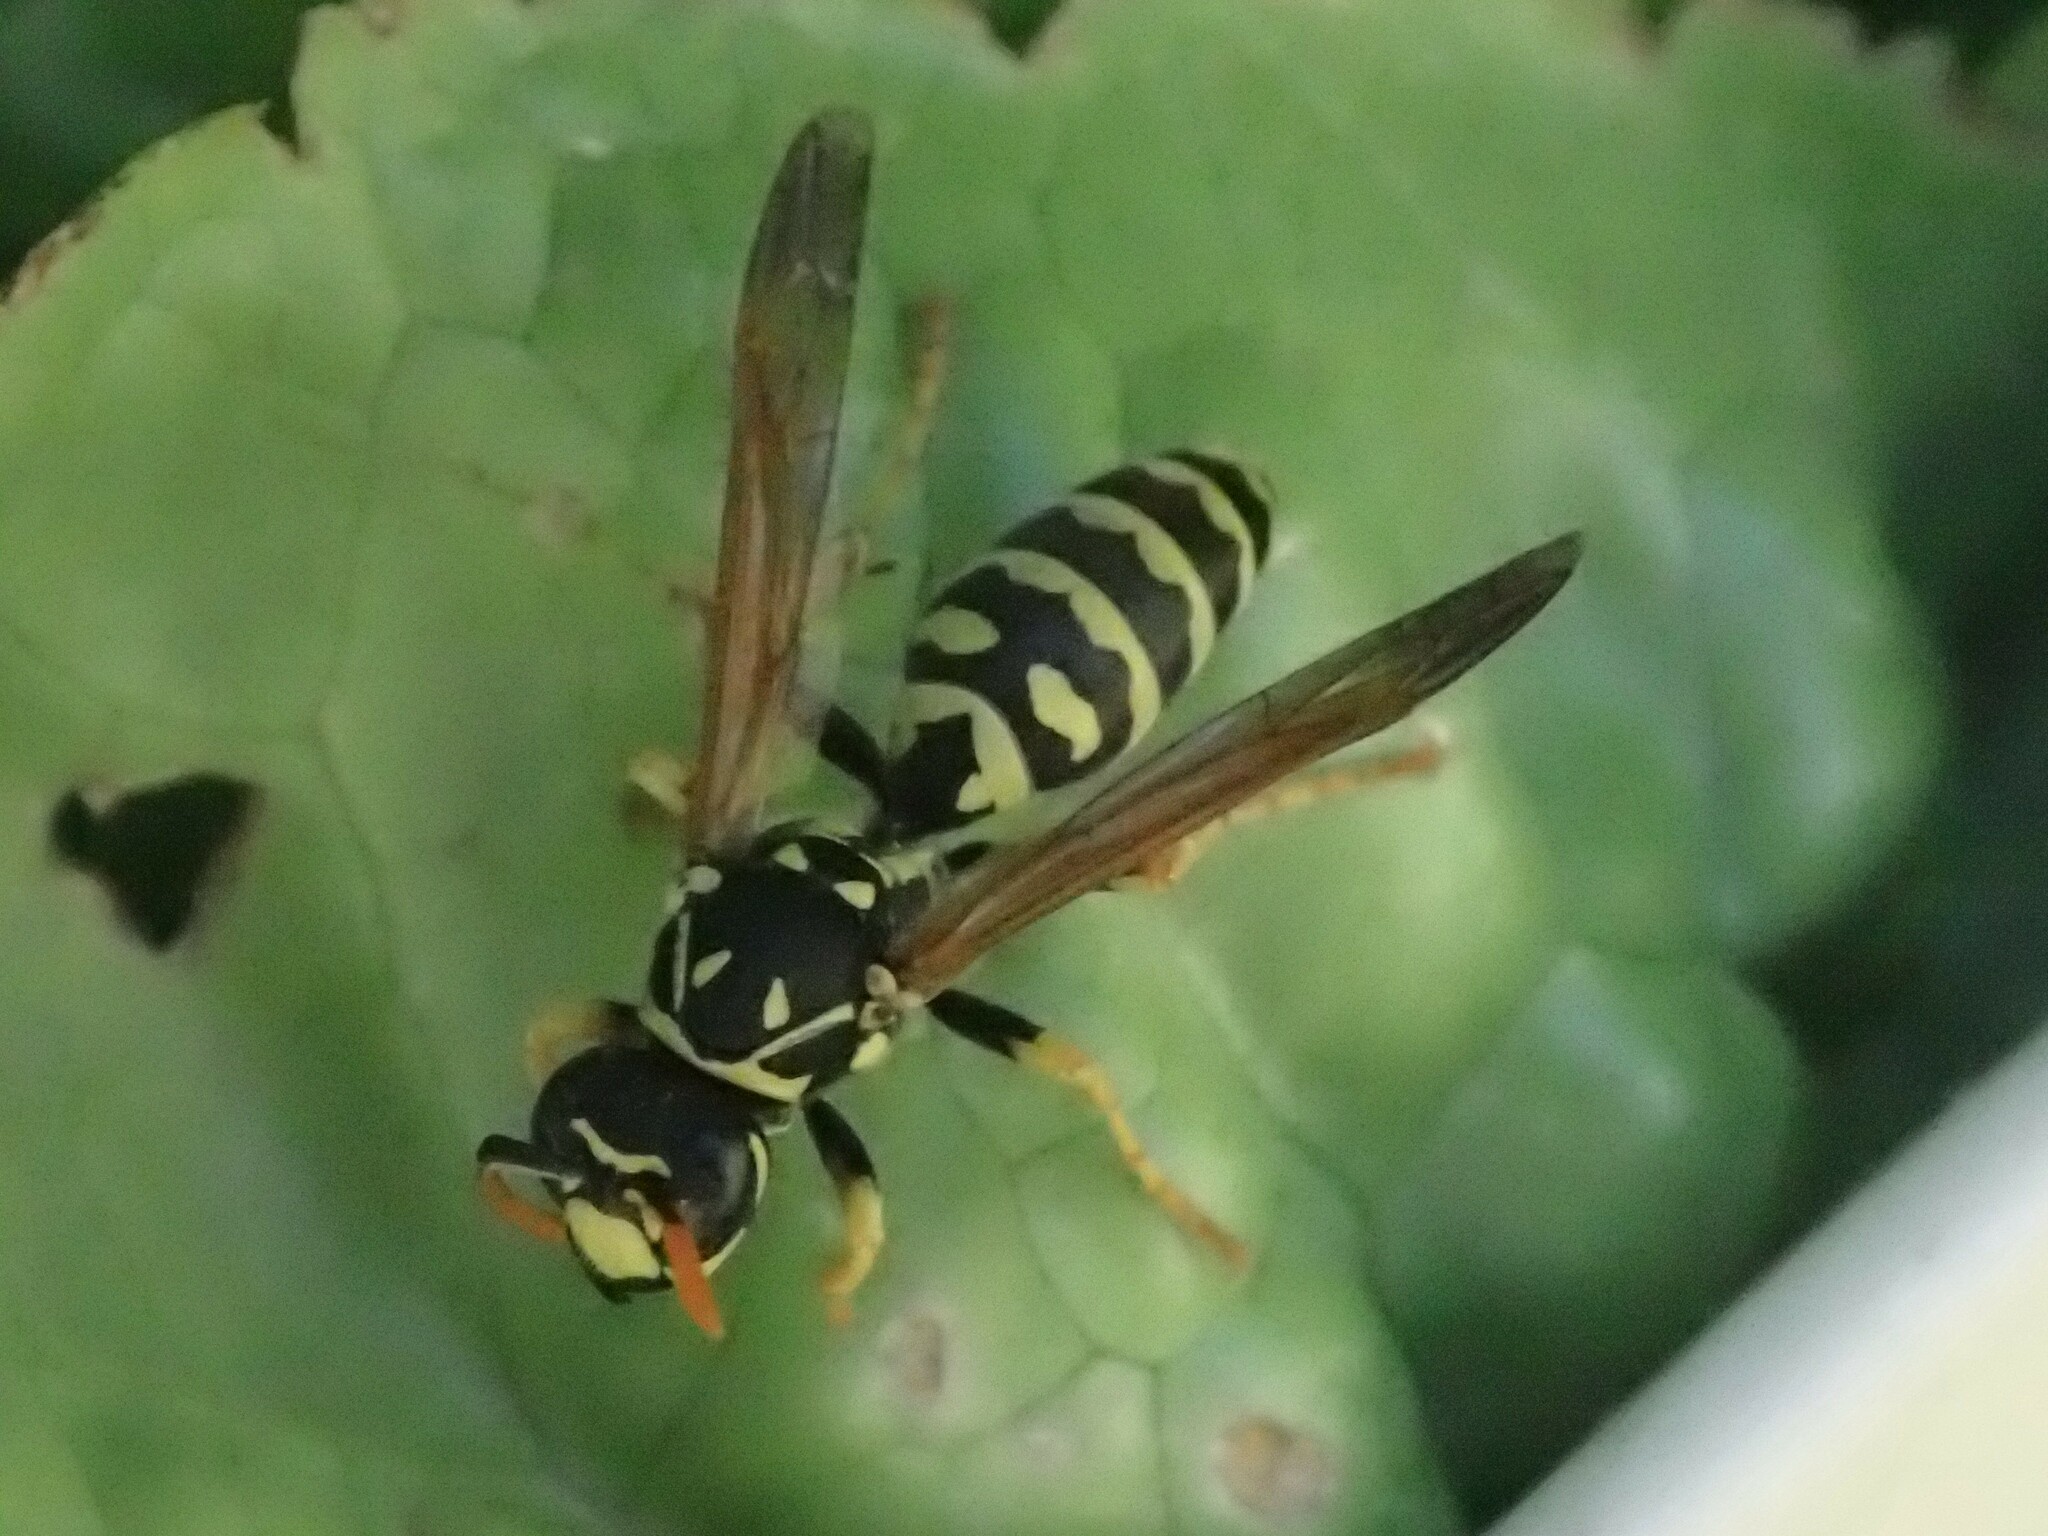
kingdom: Animalia
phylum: Arthropoda
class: Insecta
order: Hymenoptera
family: Eumenidae
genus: Polistes
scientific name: Polistes dominula
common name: Paper wasp
